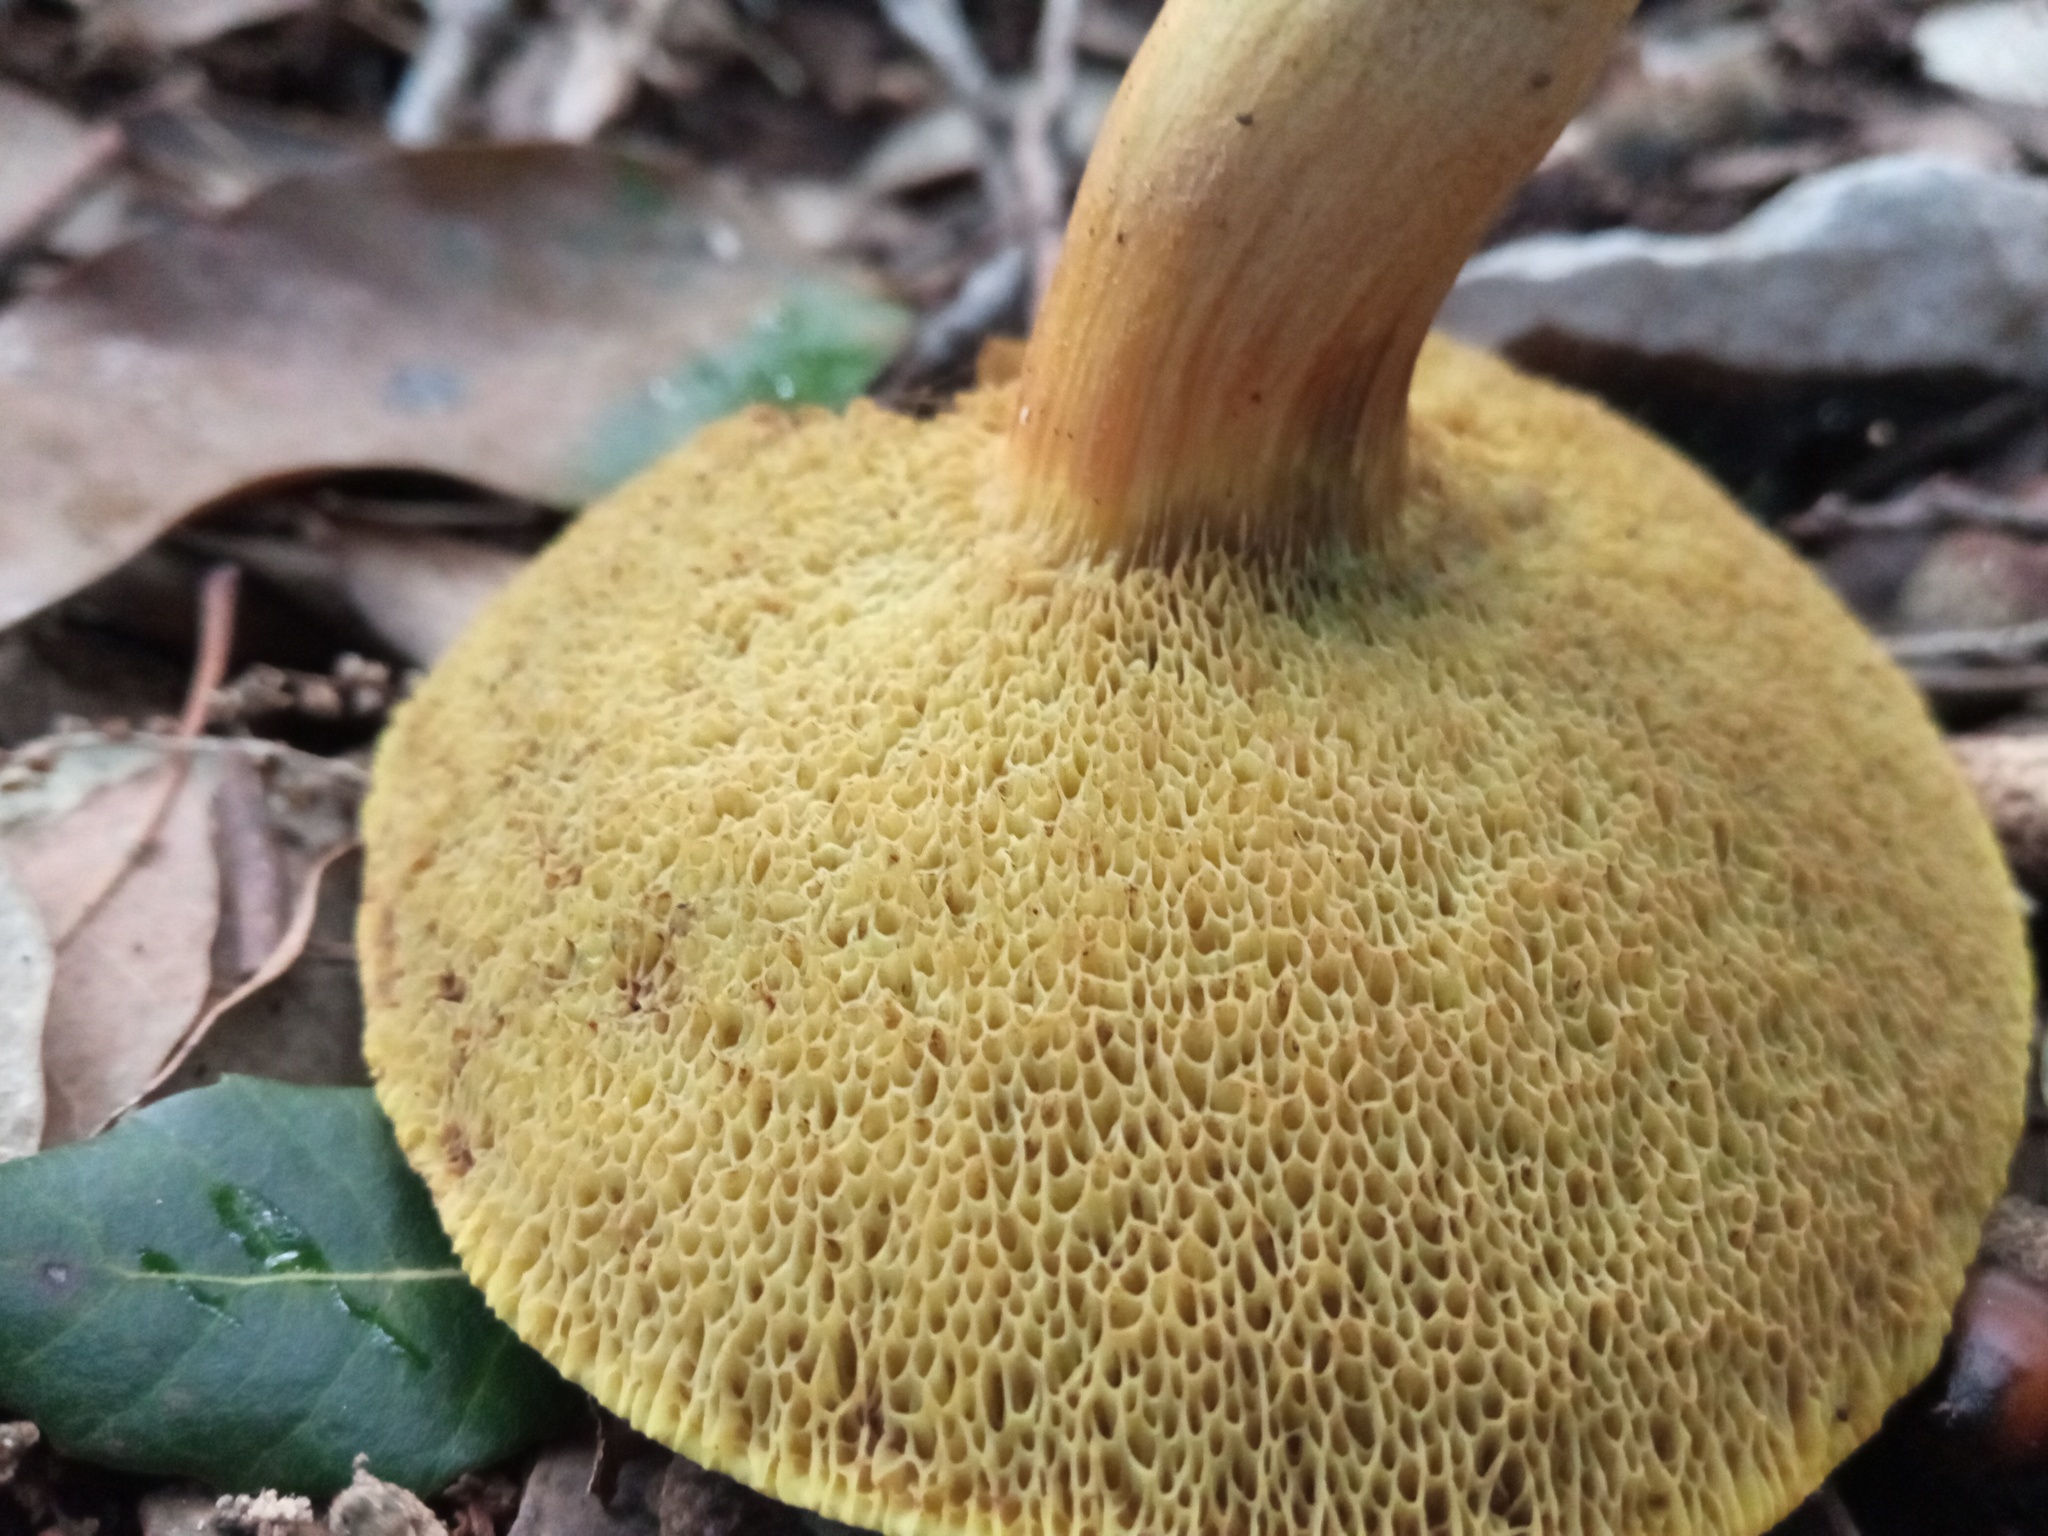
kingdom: Fungi
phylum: Basidiomycota
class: Agaricomycetes
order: Boletales
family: Boletaceae
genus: Xerocomus
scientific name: Xerocomus subtomentosus
